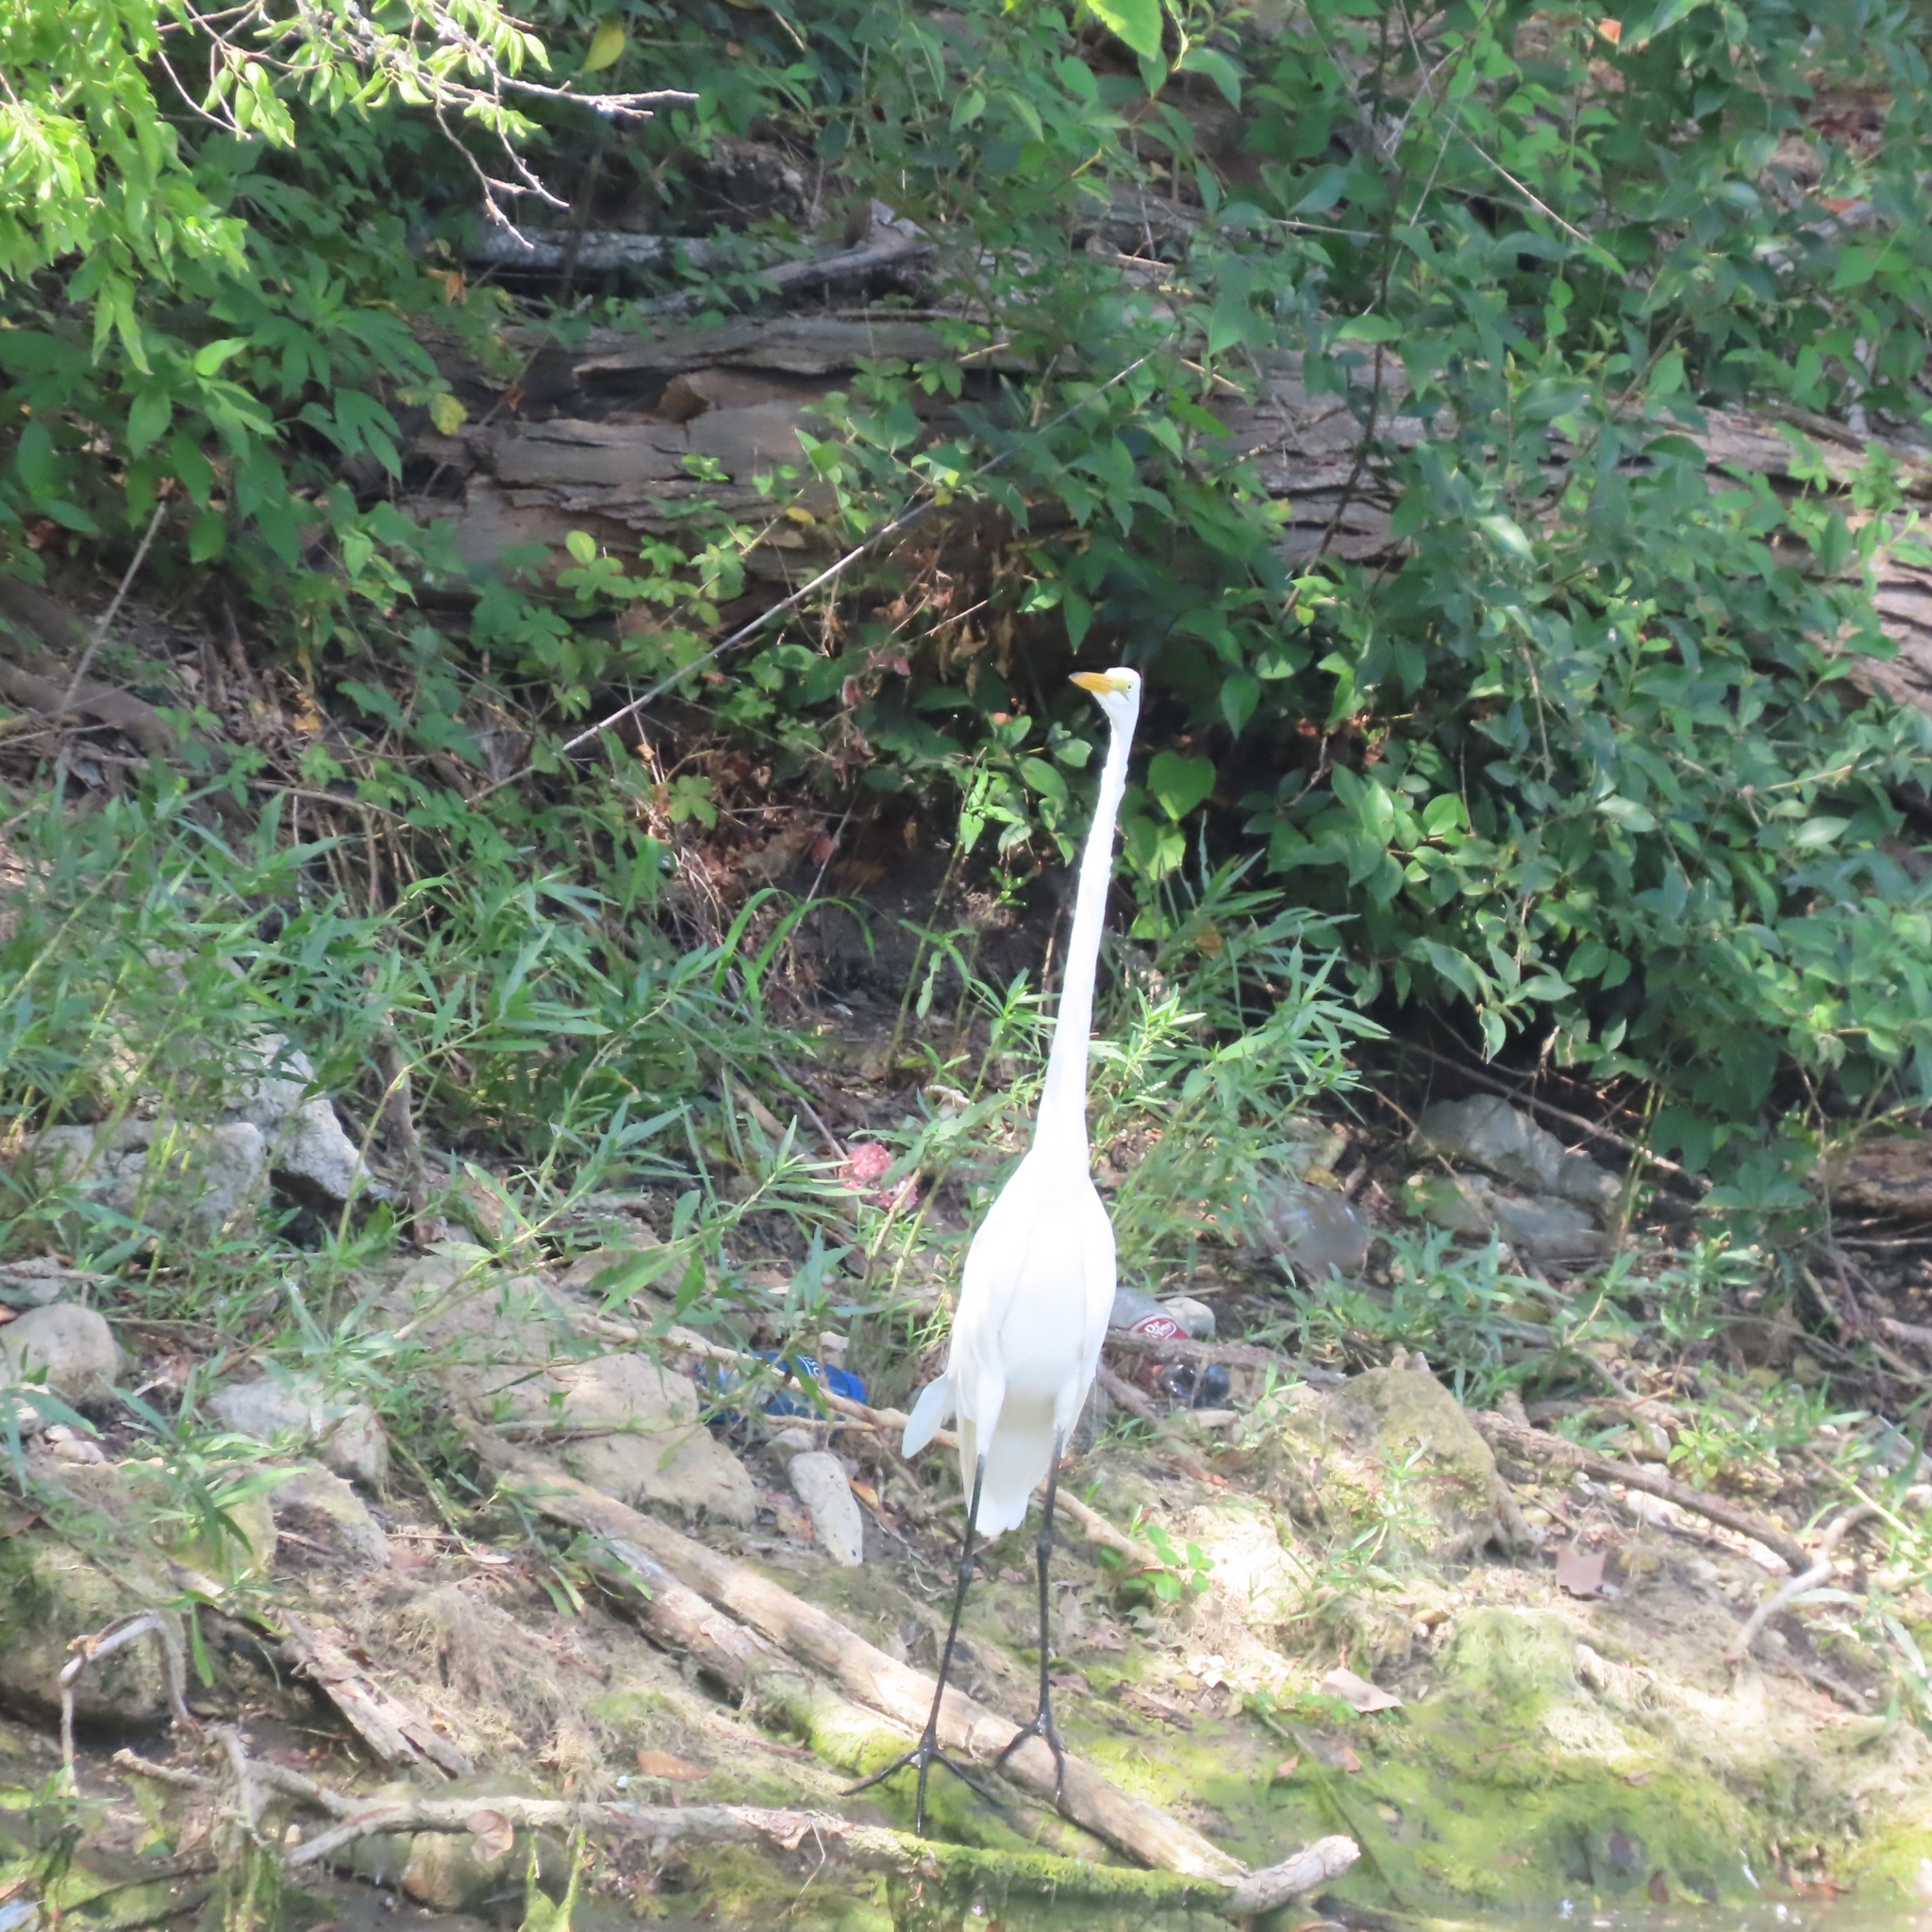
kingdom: Animalia
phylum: Chordata
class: Aves
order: Pelecaniformes
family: Ardeidae
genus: Ardea
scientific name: Ardea alba
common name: Great egret
